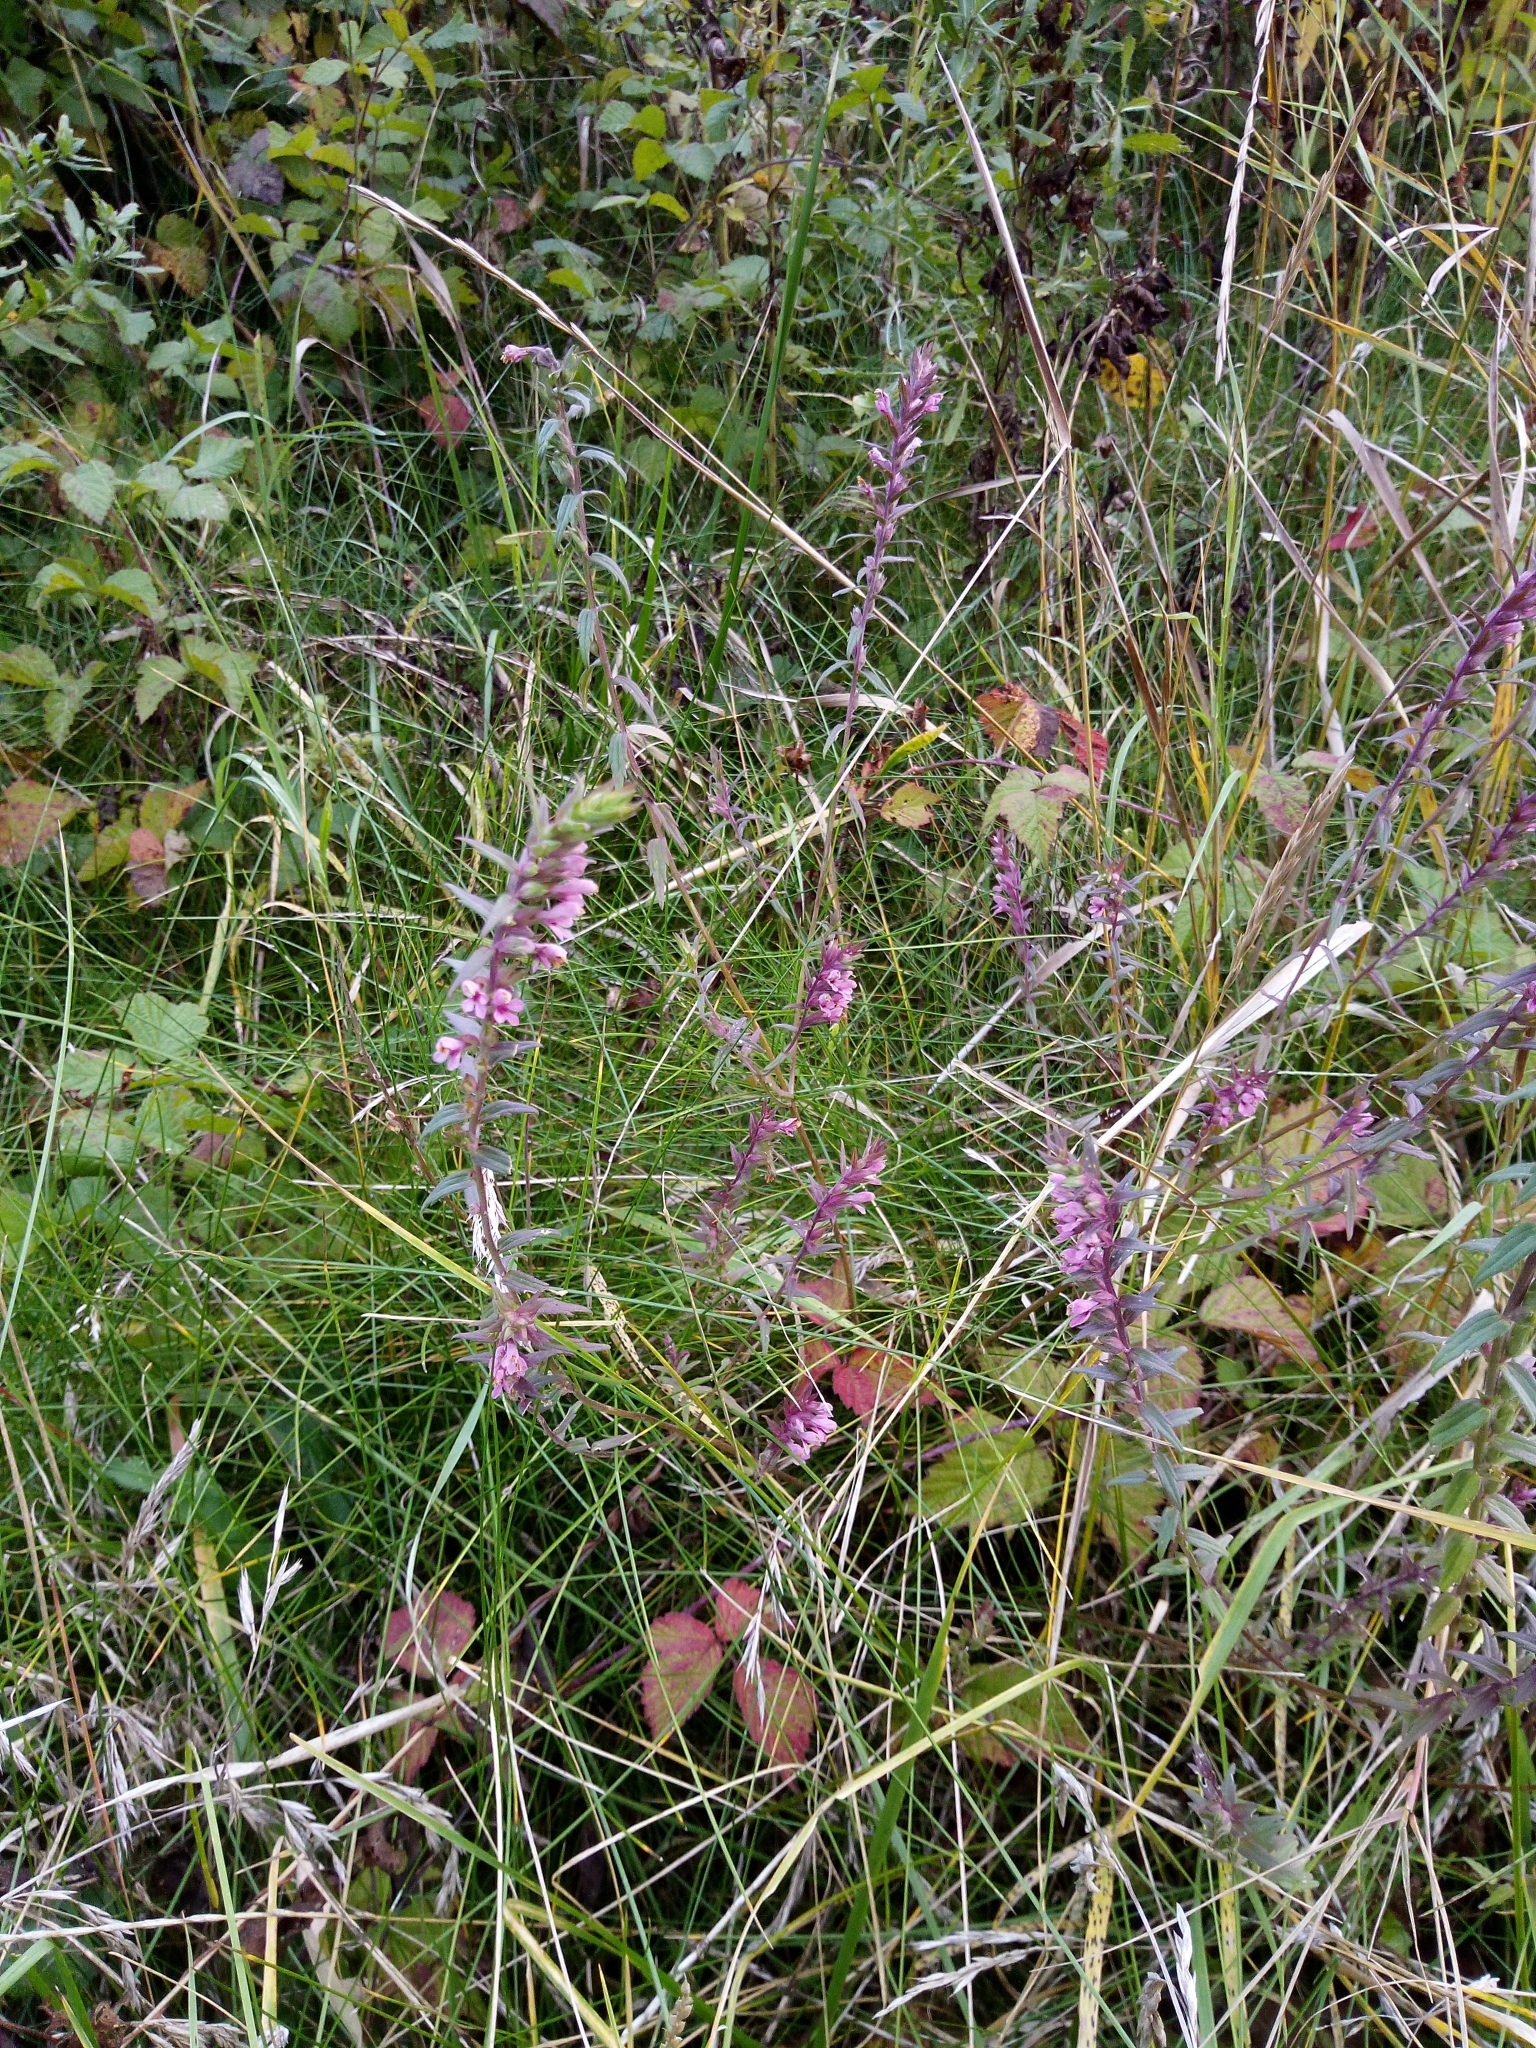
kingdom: Plantae
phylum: Tracheophyta
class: Magnoliopsida
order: Lamiales
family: Orobanchaceae
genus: Odontites
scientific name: Odontites vulgaris
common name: Broomrape
